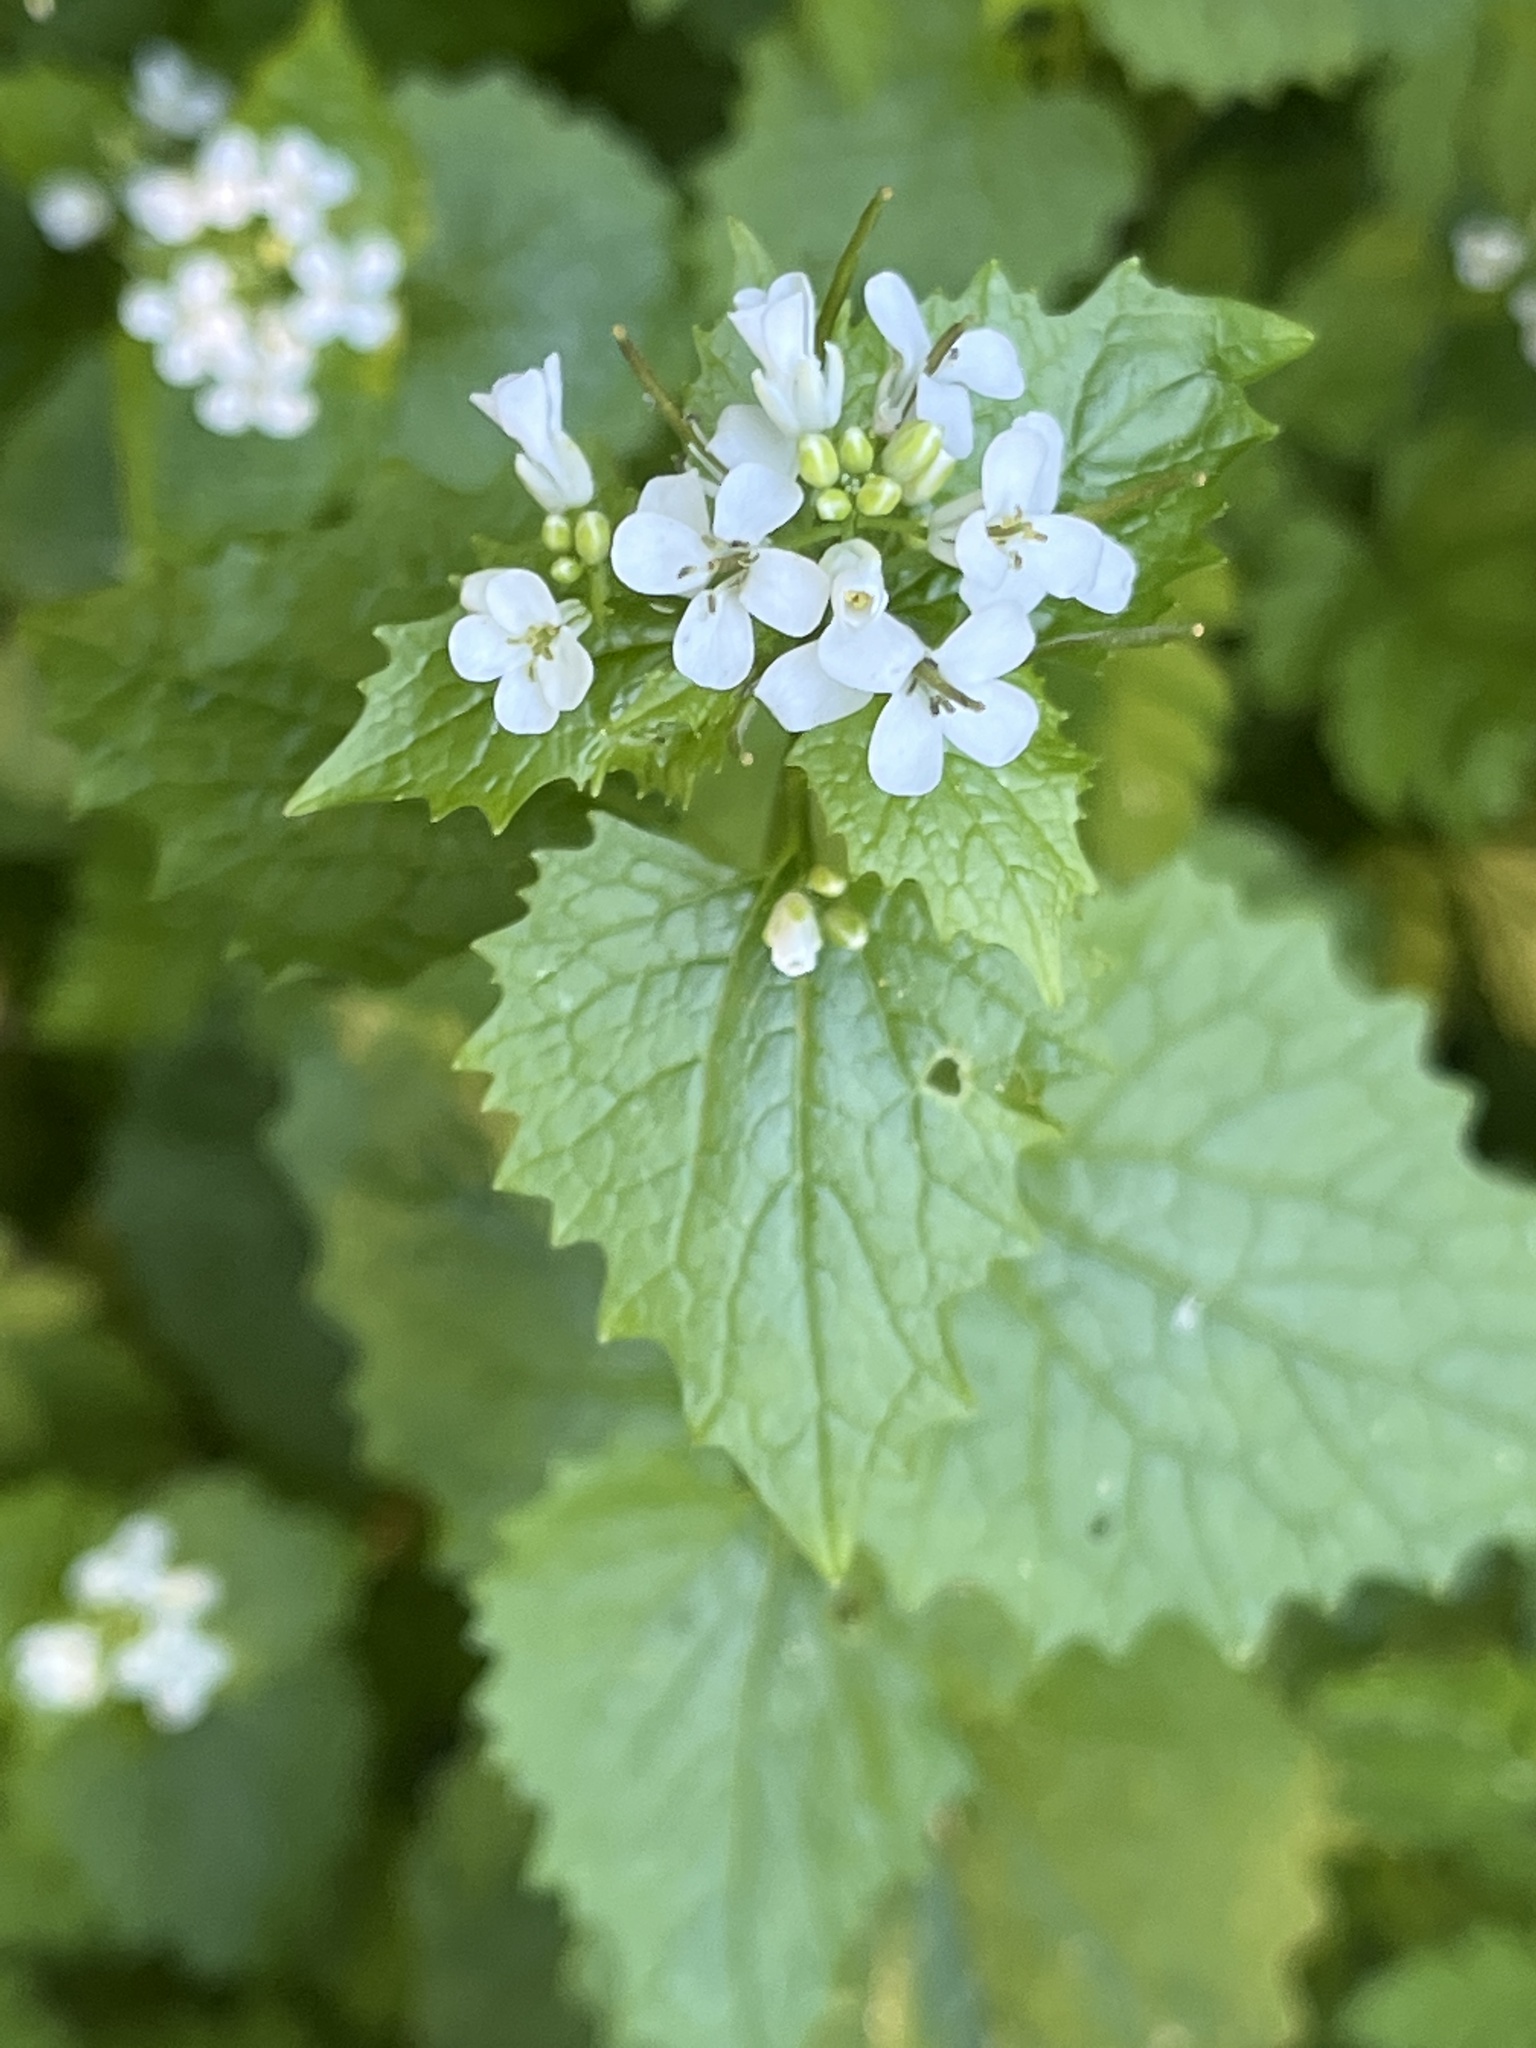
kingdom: Plantae
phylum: Tracheophyta
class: Magnoliopsida
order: Brassicales
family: Brassicaceae
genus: Alliaria
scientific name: Alliaria petiolata
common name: Garlic mustard
